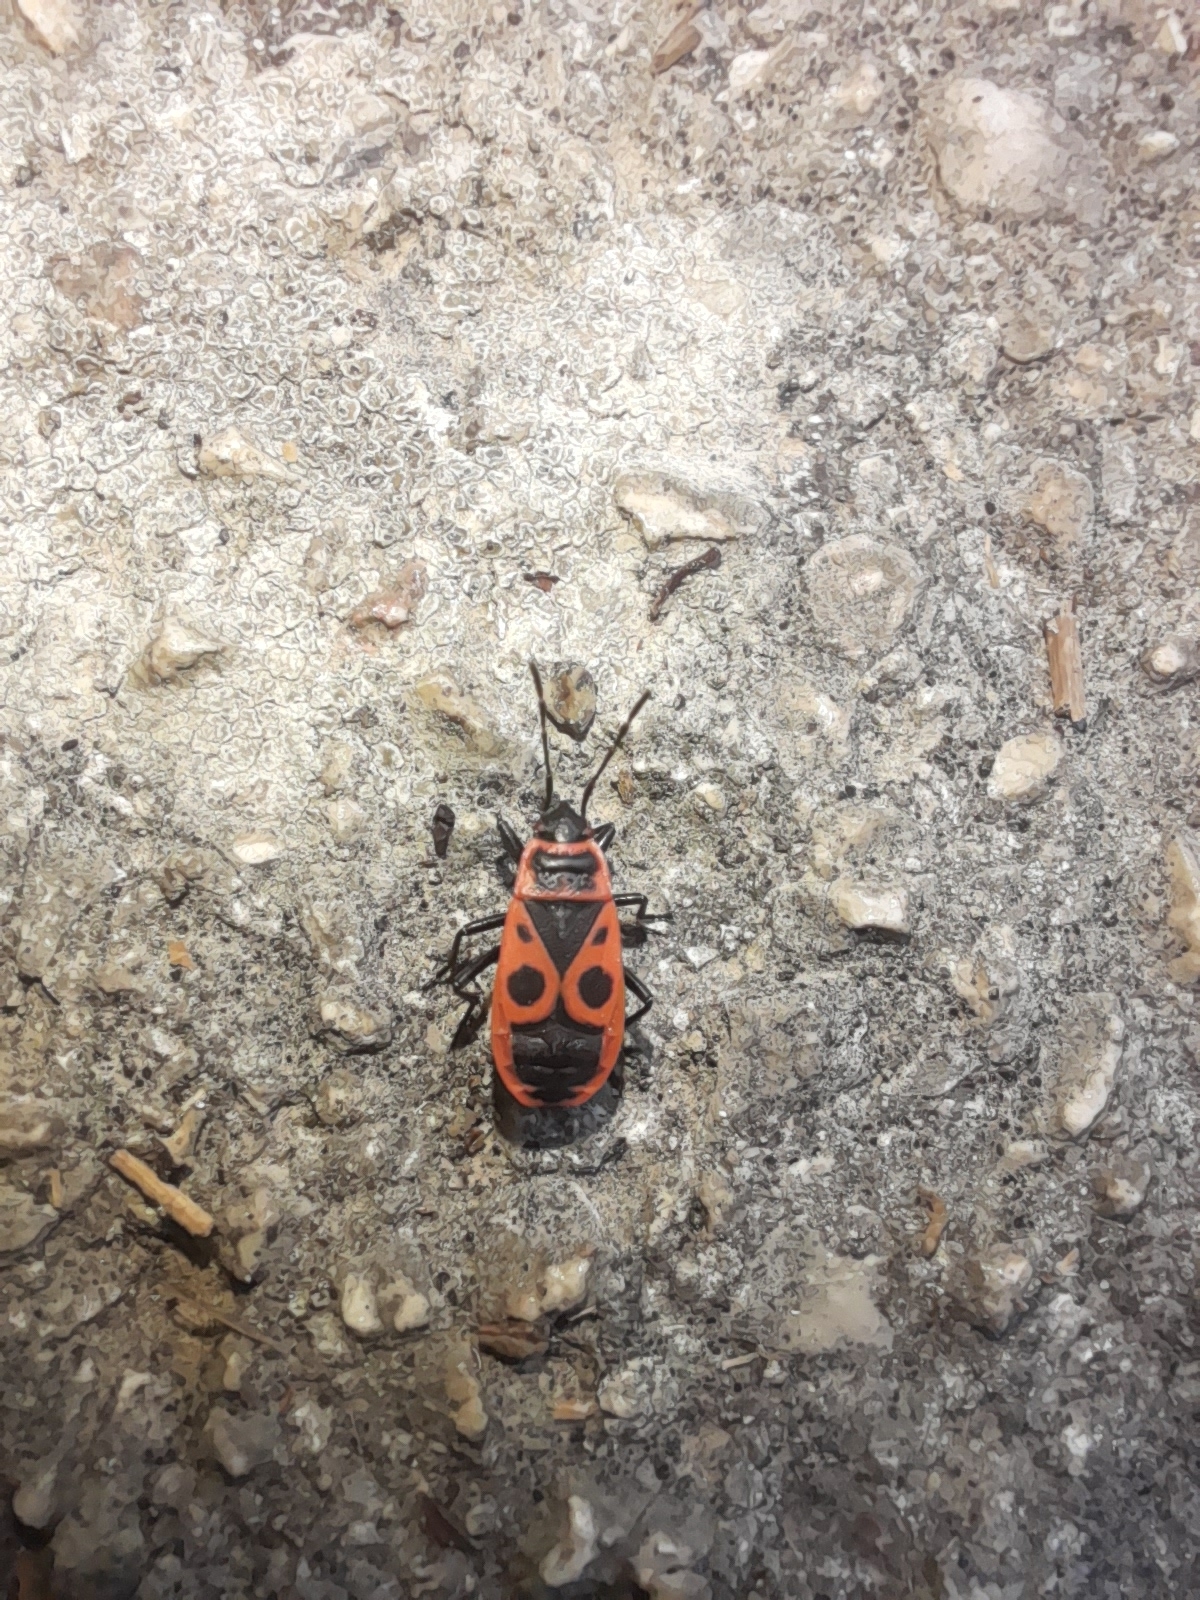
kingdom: Animalia
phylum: Arthropoda
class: Insecta
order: Hemiptera
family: Pyrrhocoridae
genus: Pyrrhocoris
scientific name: Pyrrhocoris apterus
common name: Firebug
